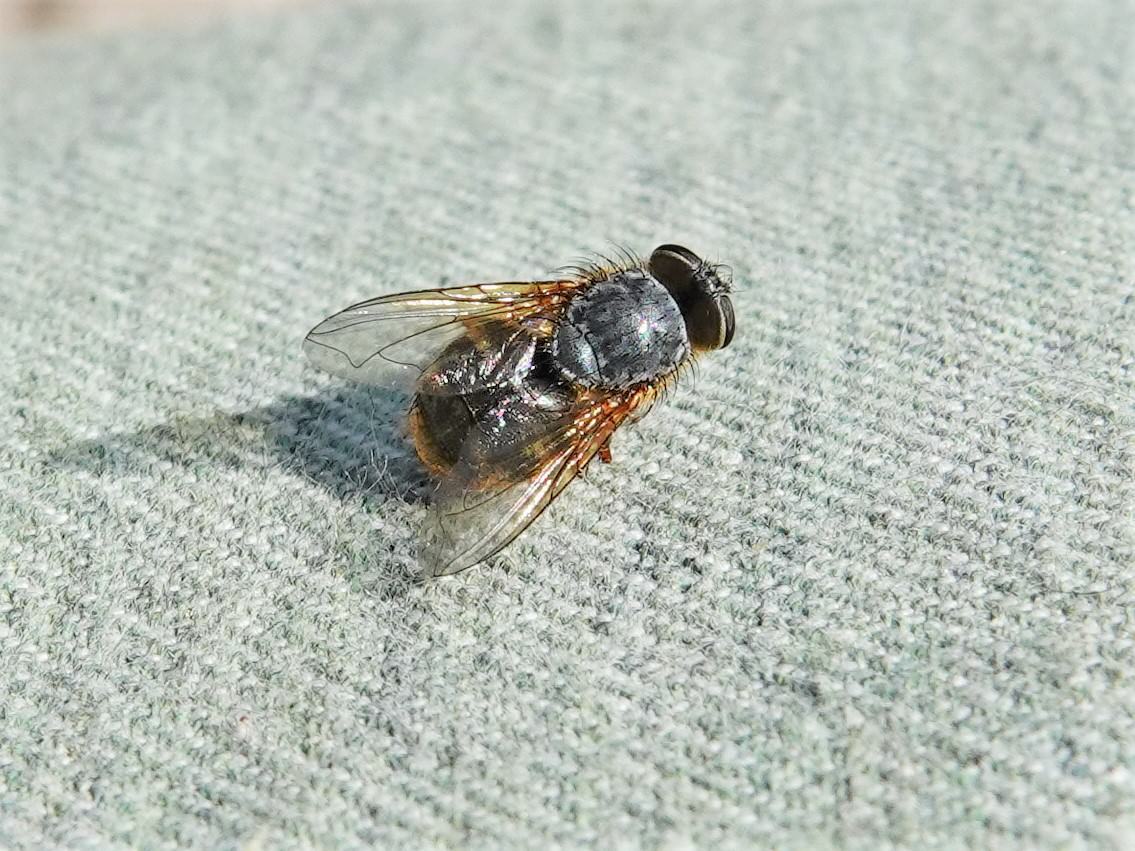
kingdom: Animalia
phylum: Arthropoda
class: Insecta
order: Diptera
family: Calliphoridae
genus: Calliphora
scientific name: Calliphora hilli
